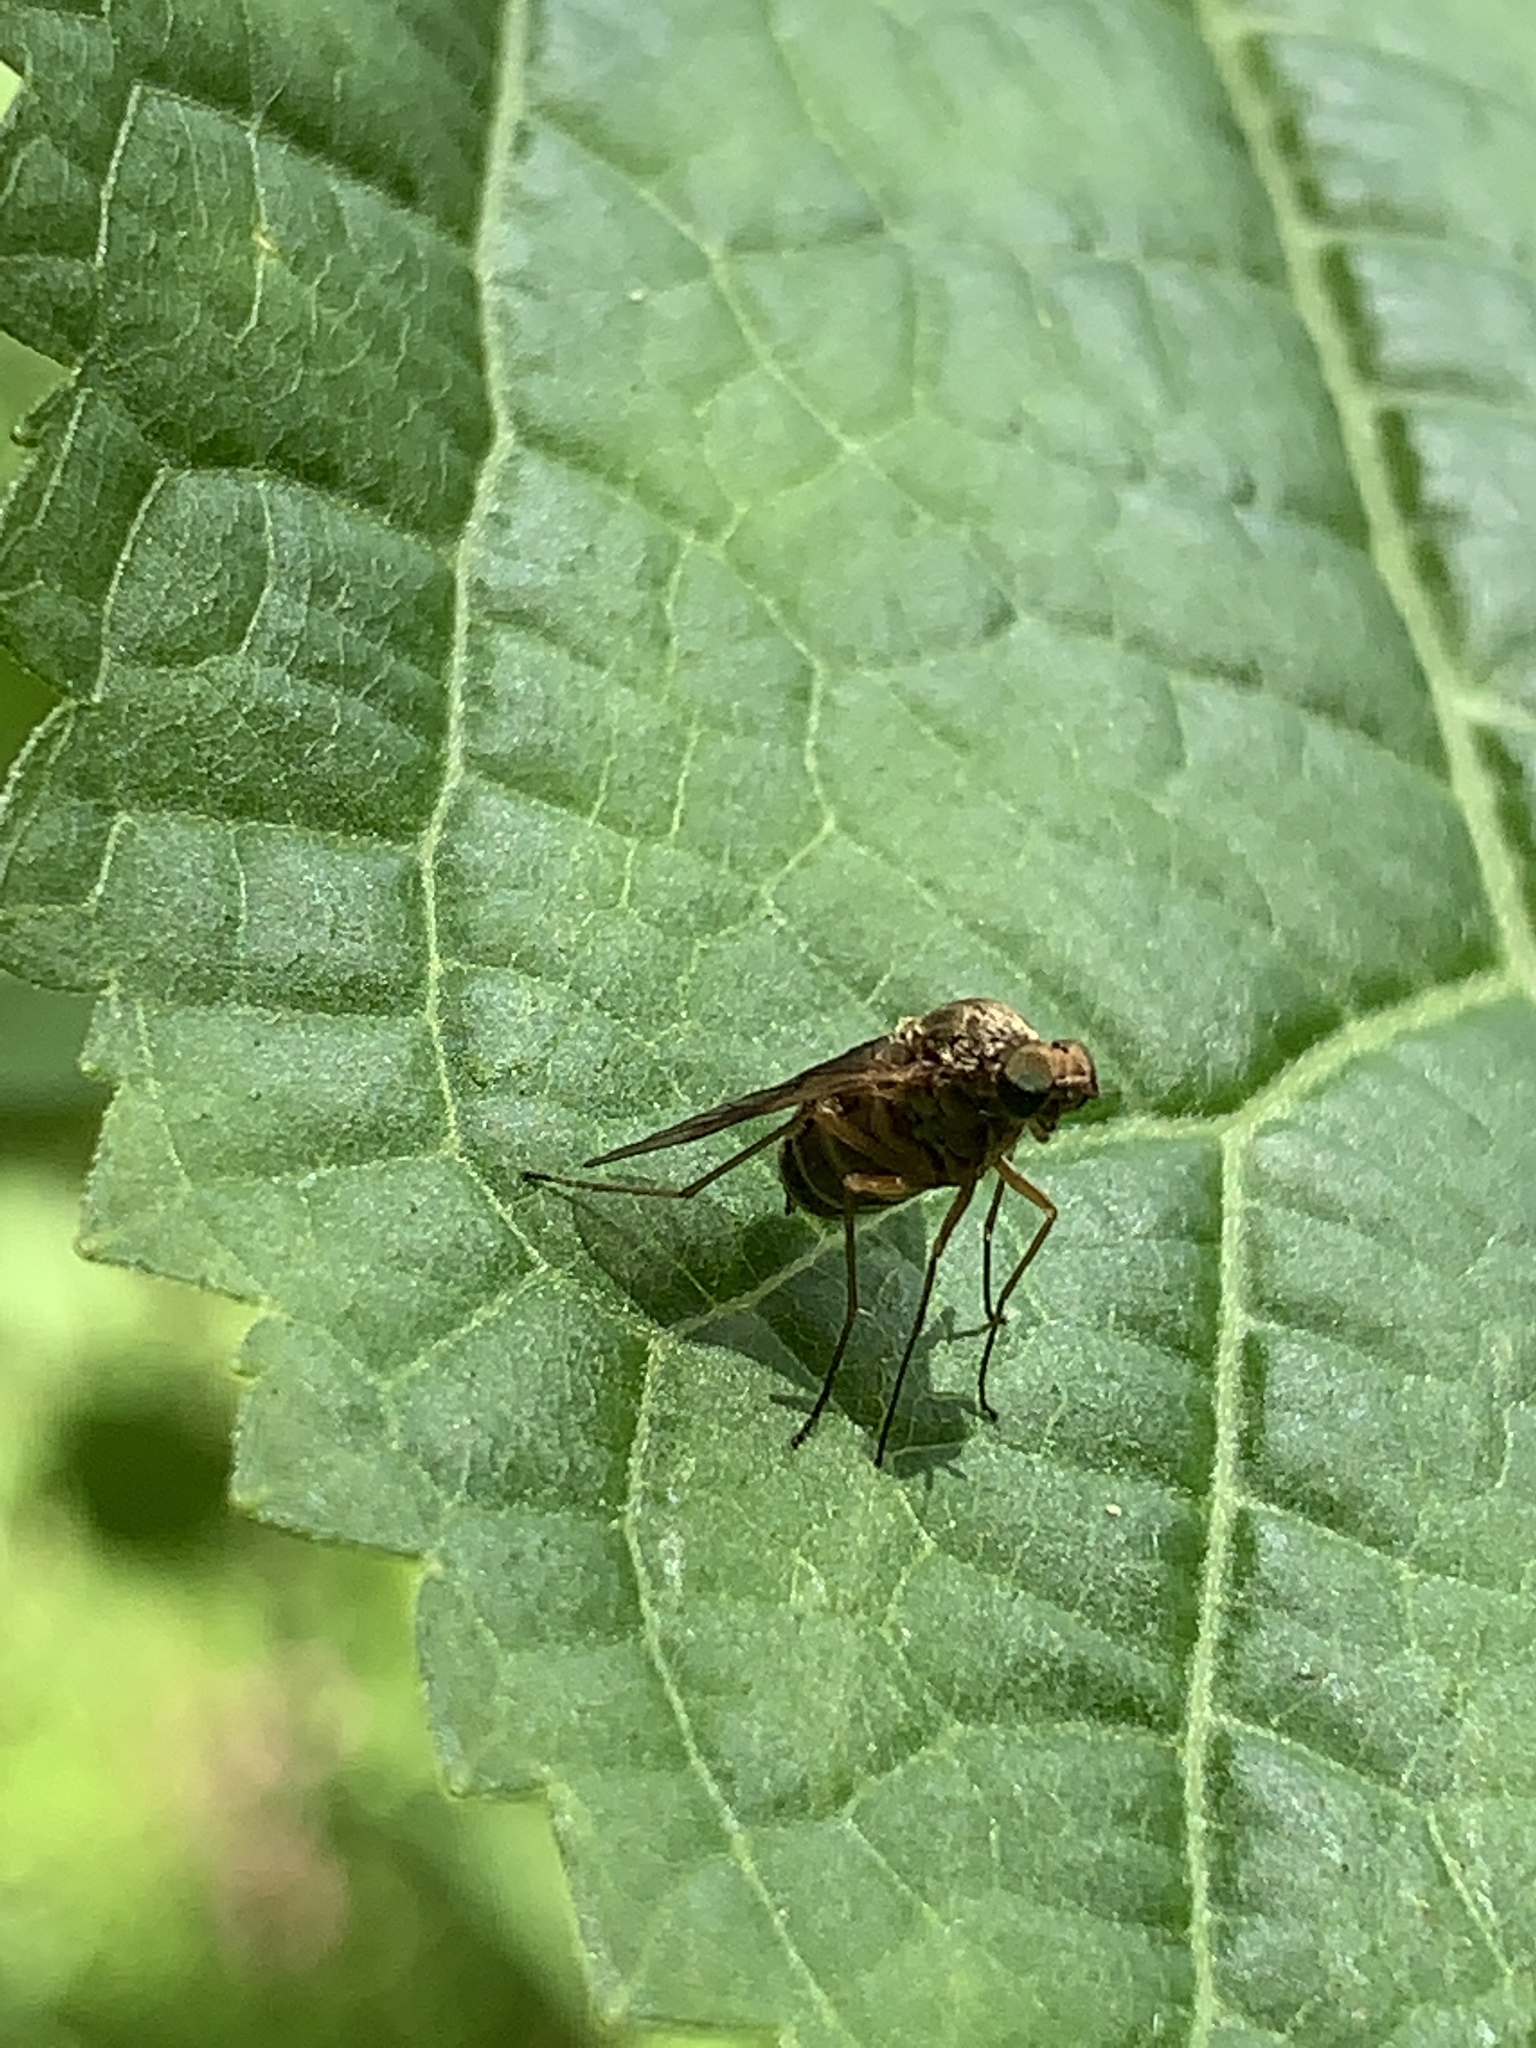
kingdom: Animalia
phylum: Arthropoda
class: Insecta
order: Diptera
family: Rhagionidae
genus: Chrysopilus
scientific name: Chrysopilus quadratus
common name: Quadrate snipe fly
